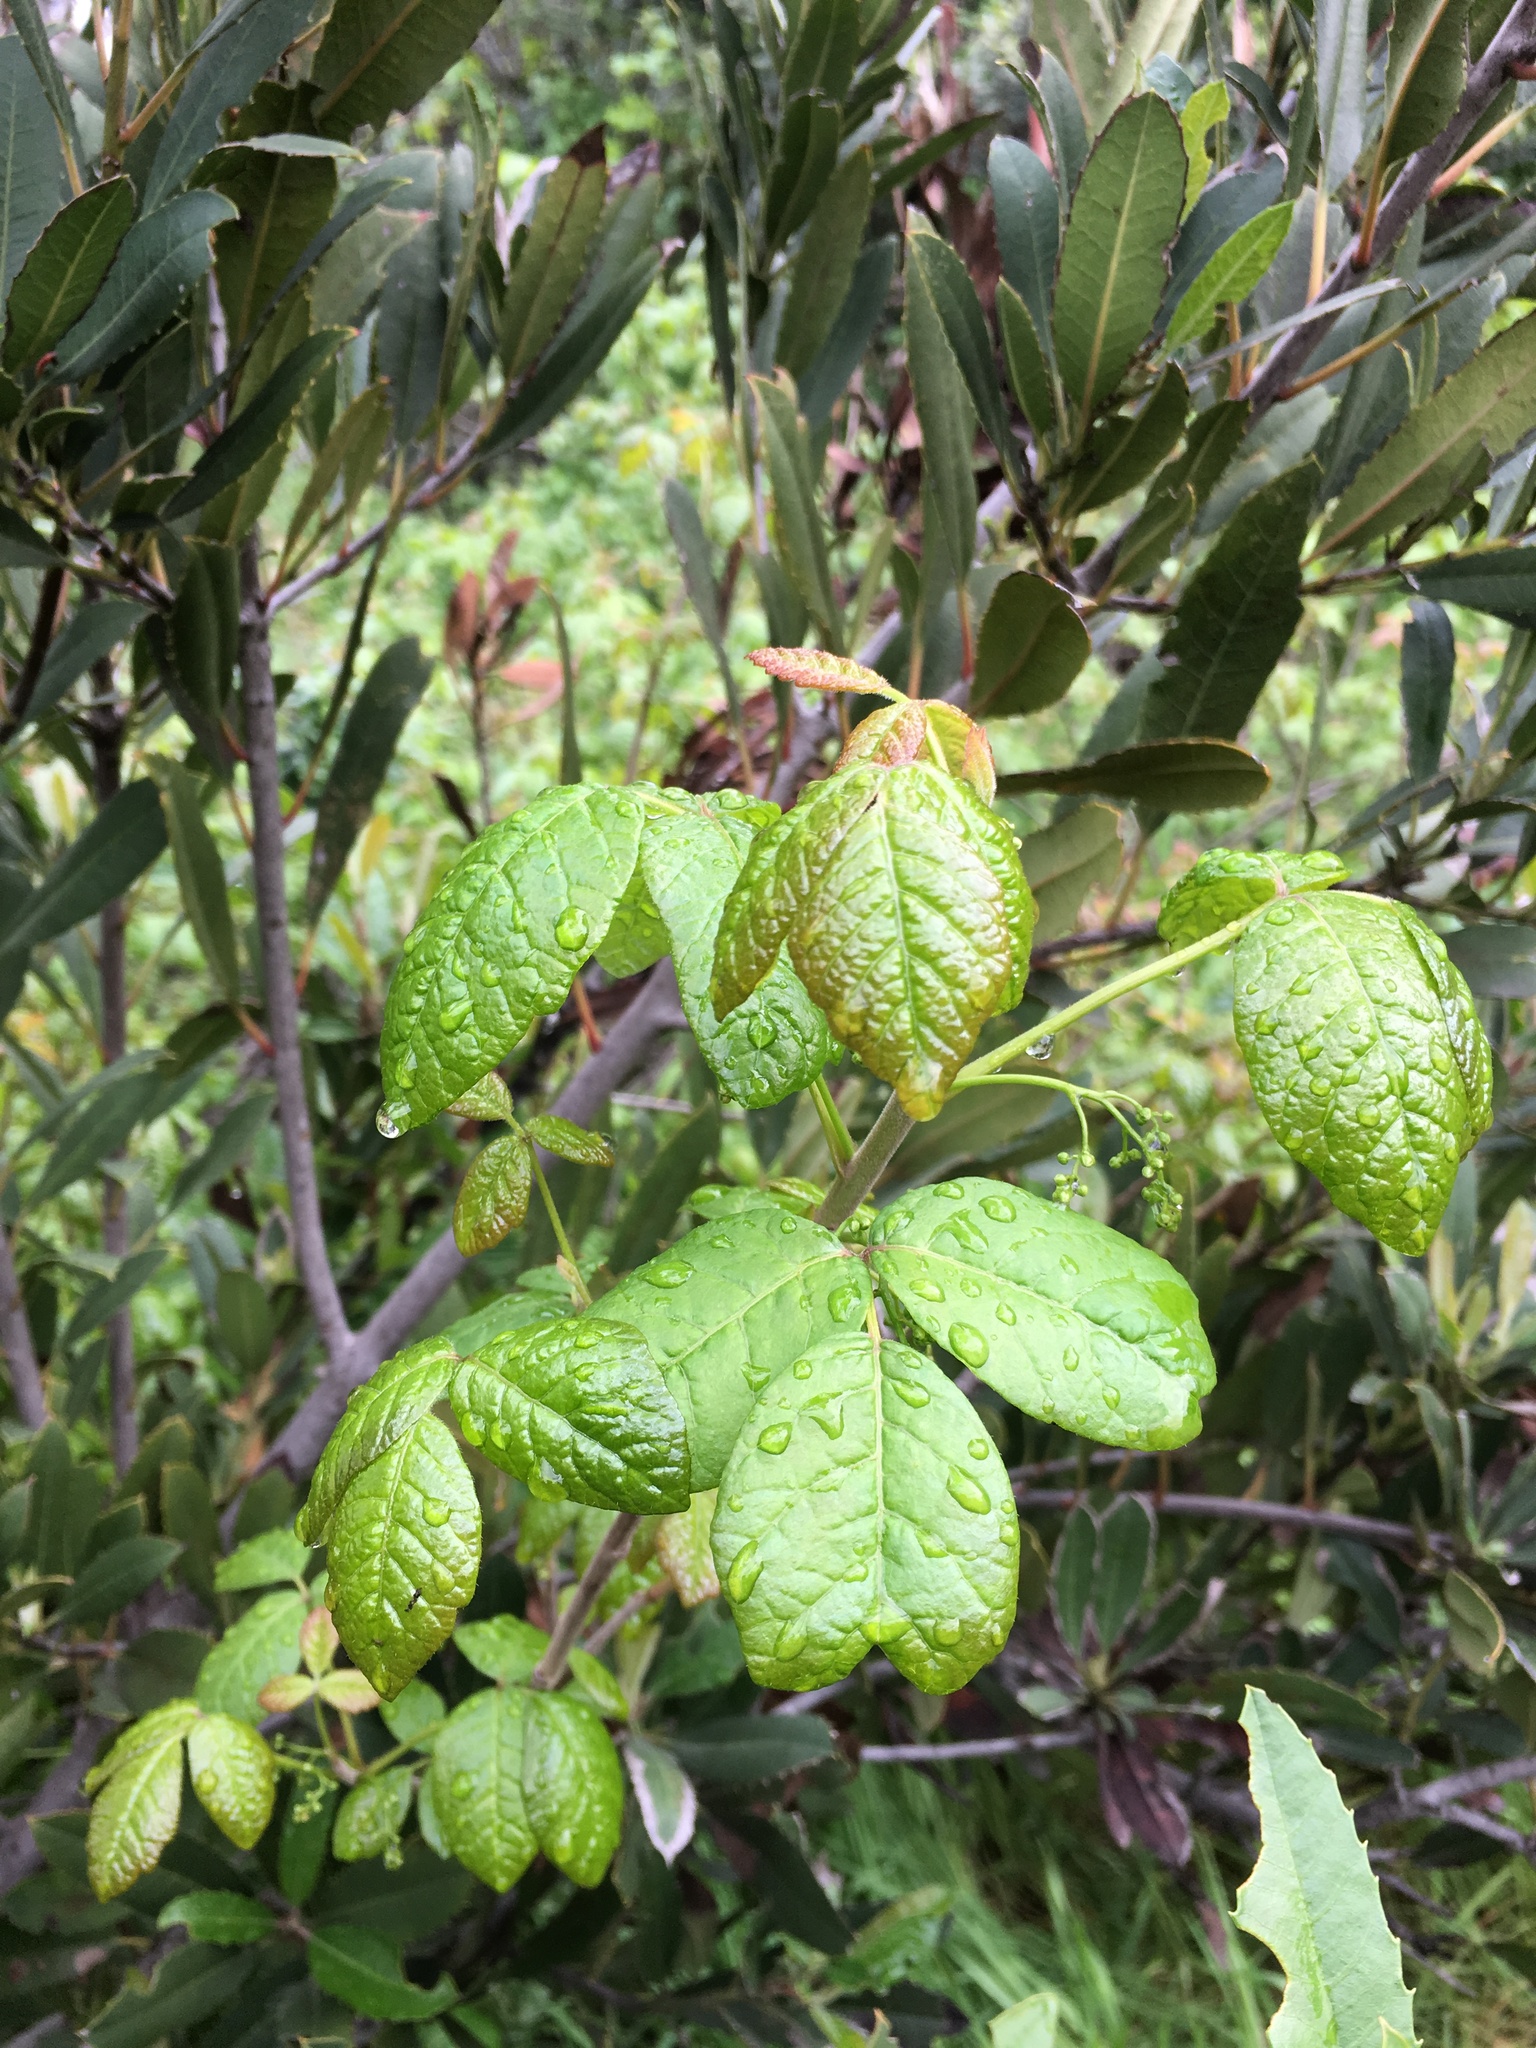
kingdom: Plantae
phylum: Tracheophyta
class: Magnoliopsida
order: Sapindales
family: Anacardiaceae
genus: Toxicodendron
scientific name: Toxicodendron diversilobum
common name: Pacific poison-oak
